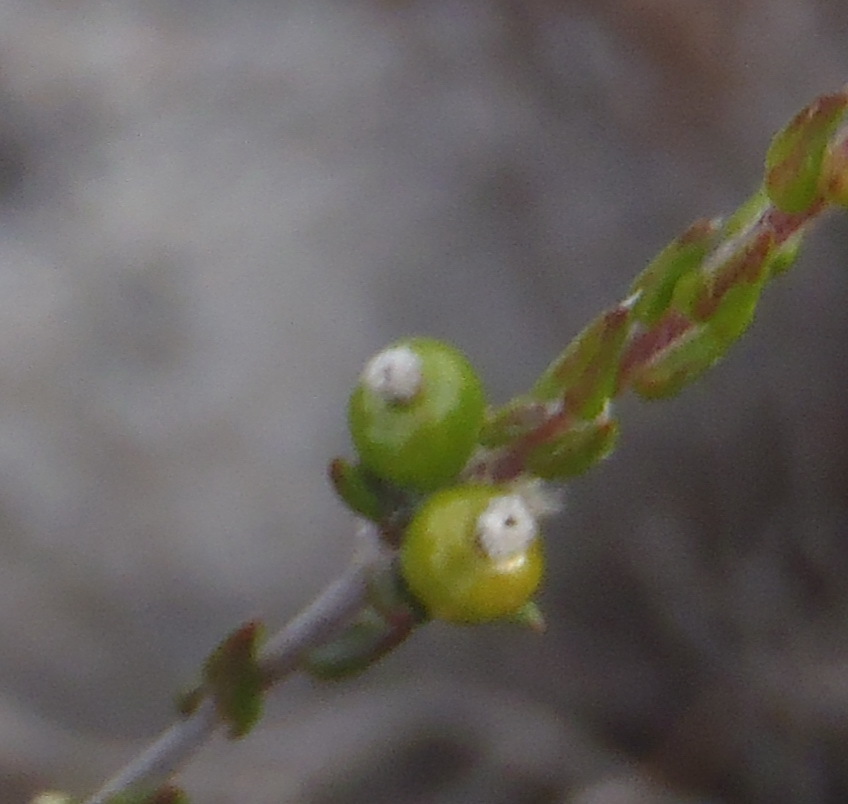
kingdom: Plantae
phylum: Tracheophyta
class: Magnoliopsida
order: Rosales
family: Rhamnaceae
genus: Phylica
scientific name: Phylica incurvata
